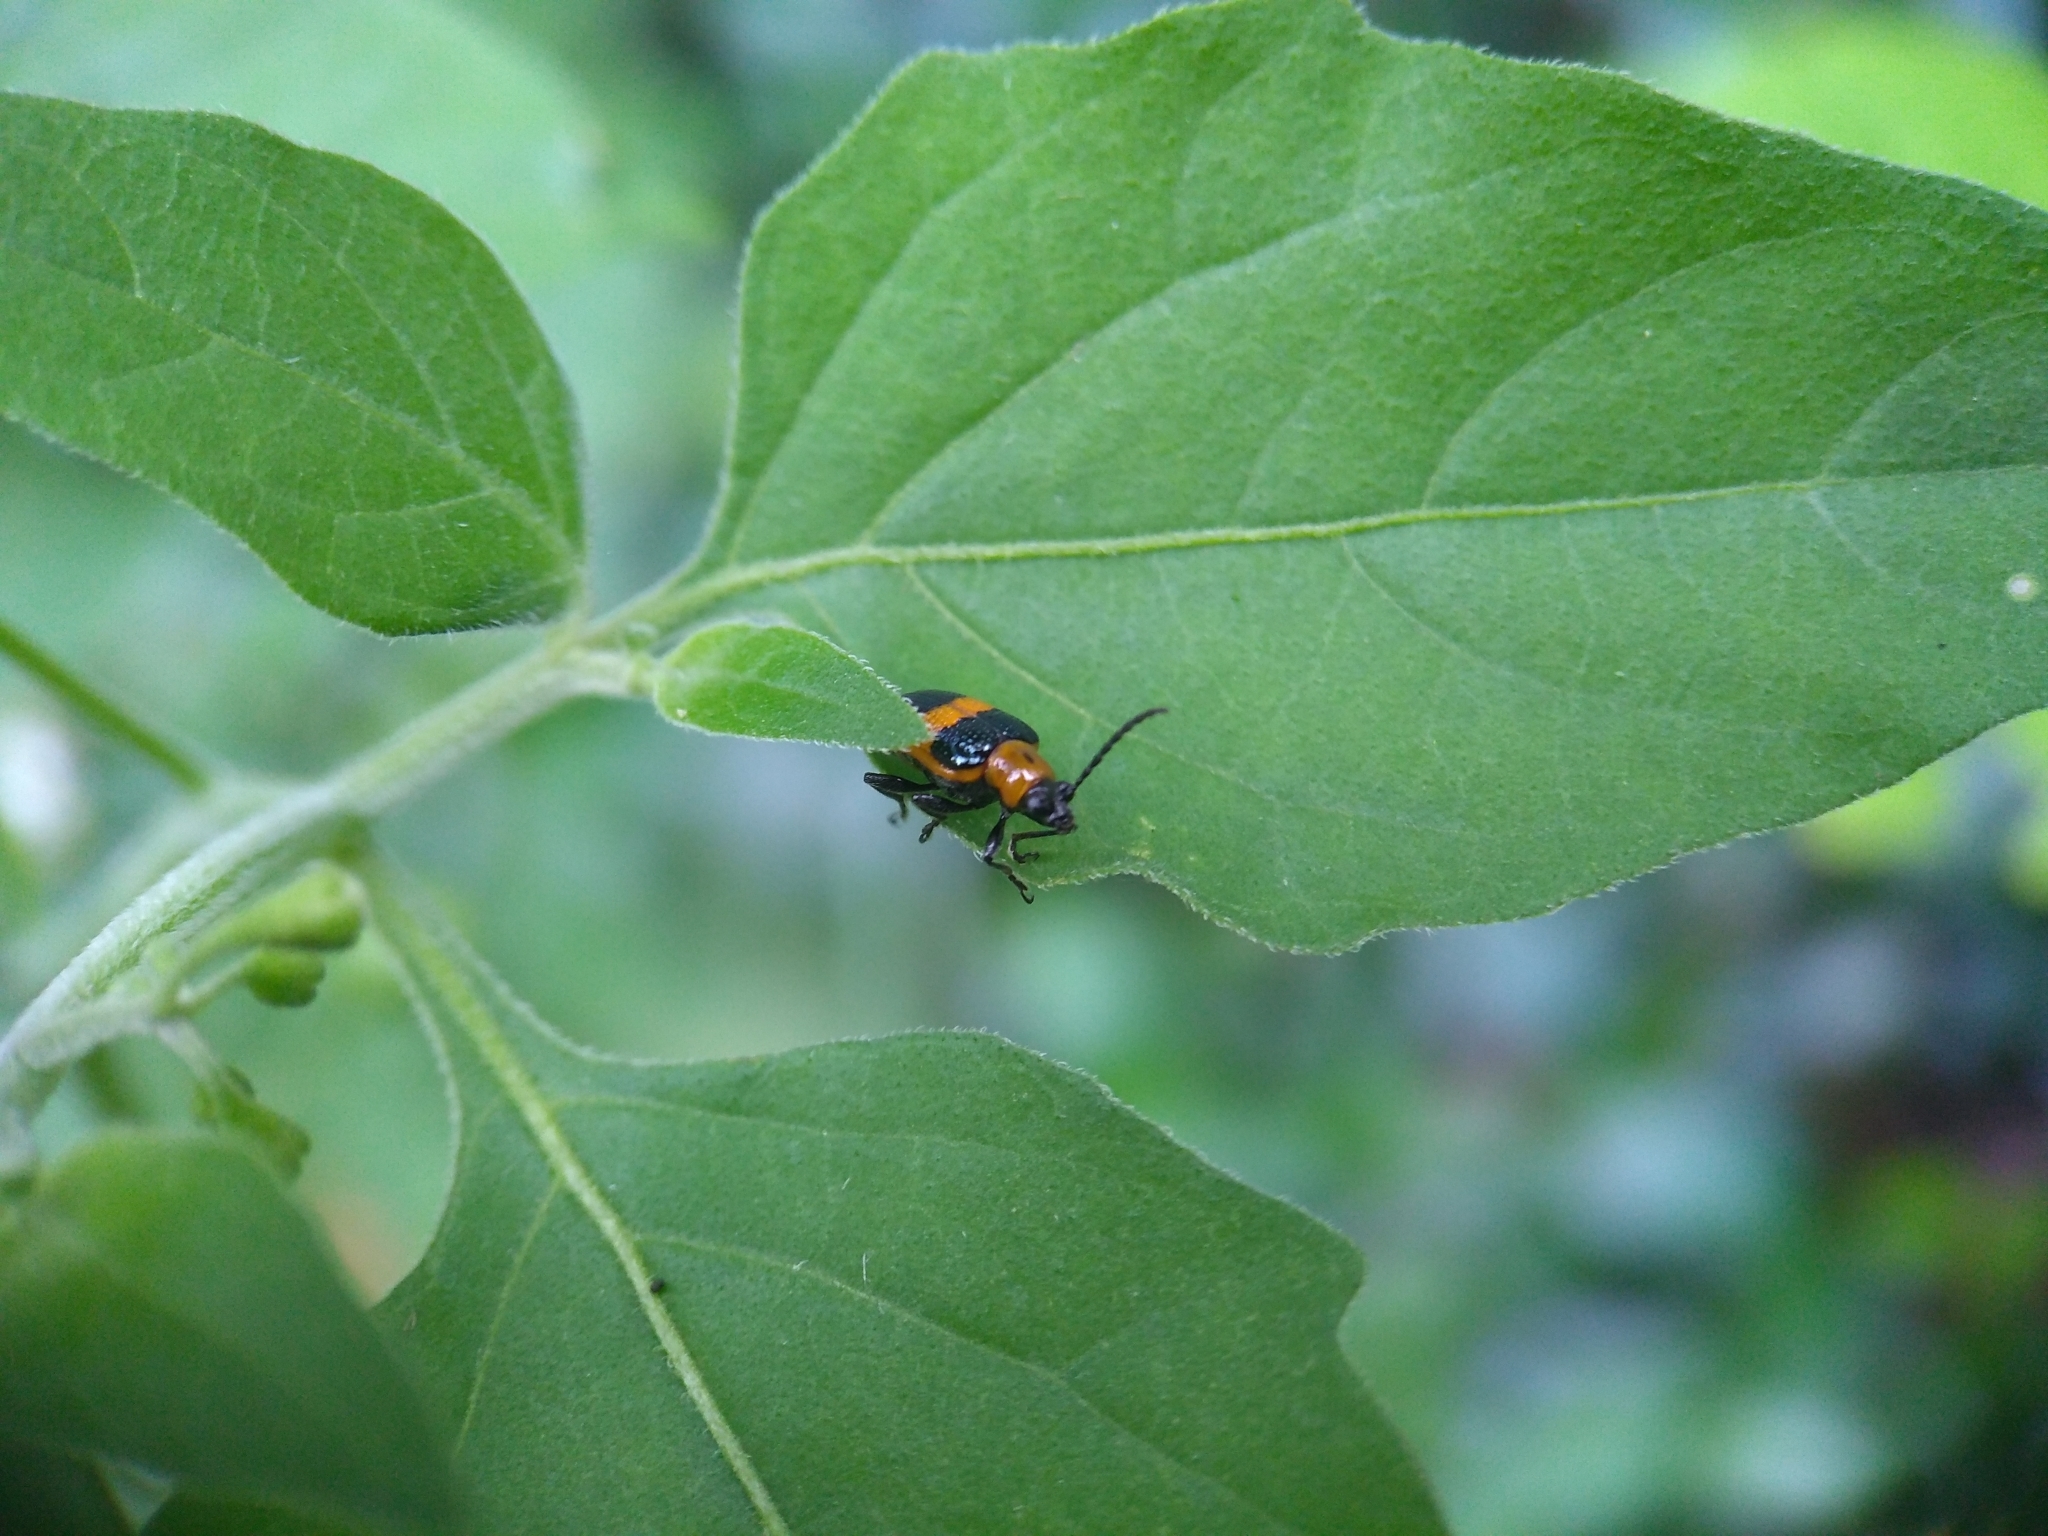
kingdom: Animalia
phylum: Arthropoda
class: Insecta
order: Coleoptera
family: Chrysomelidae
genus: Lema
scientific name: Lema solani
